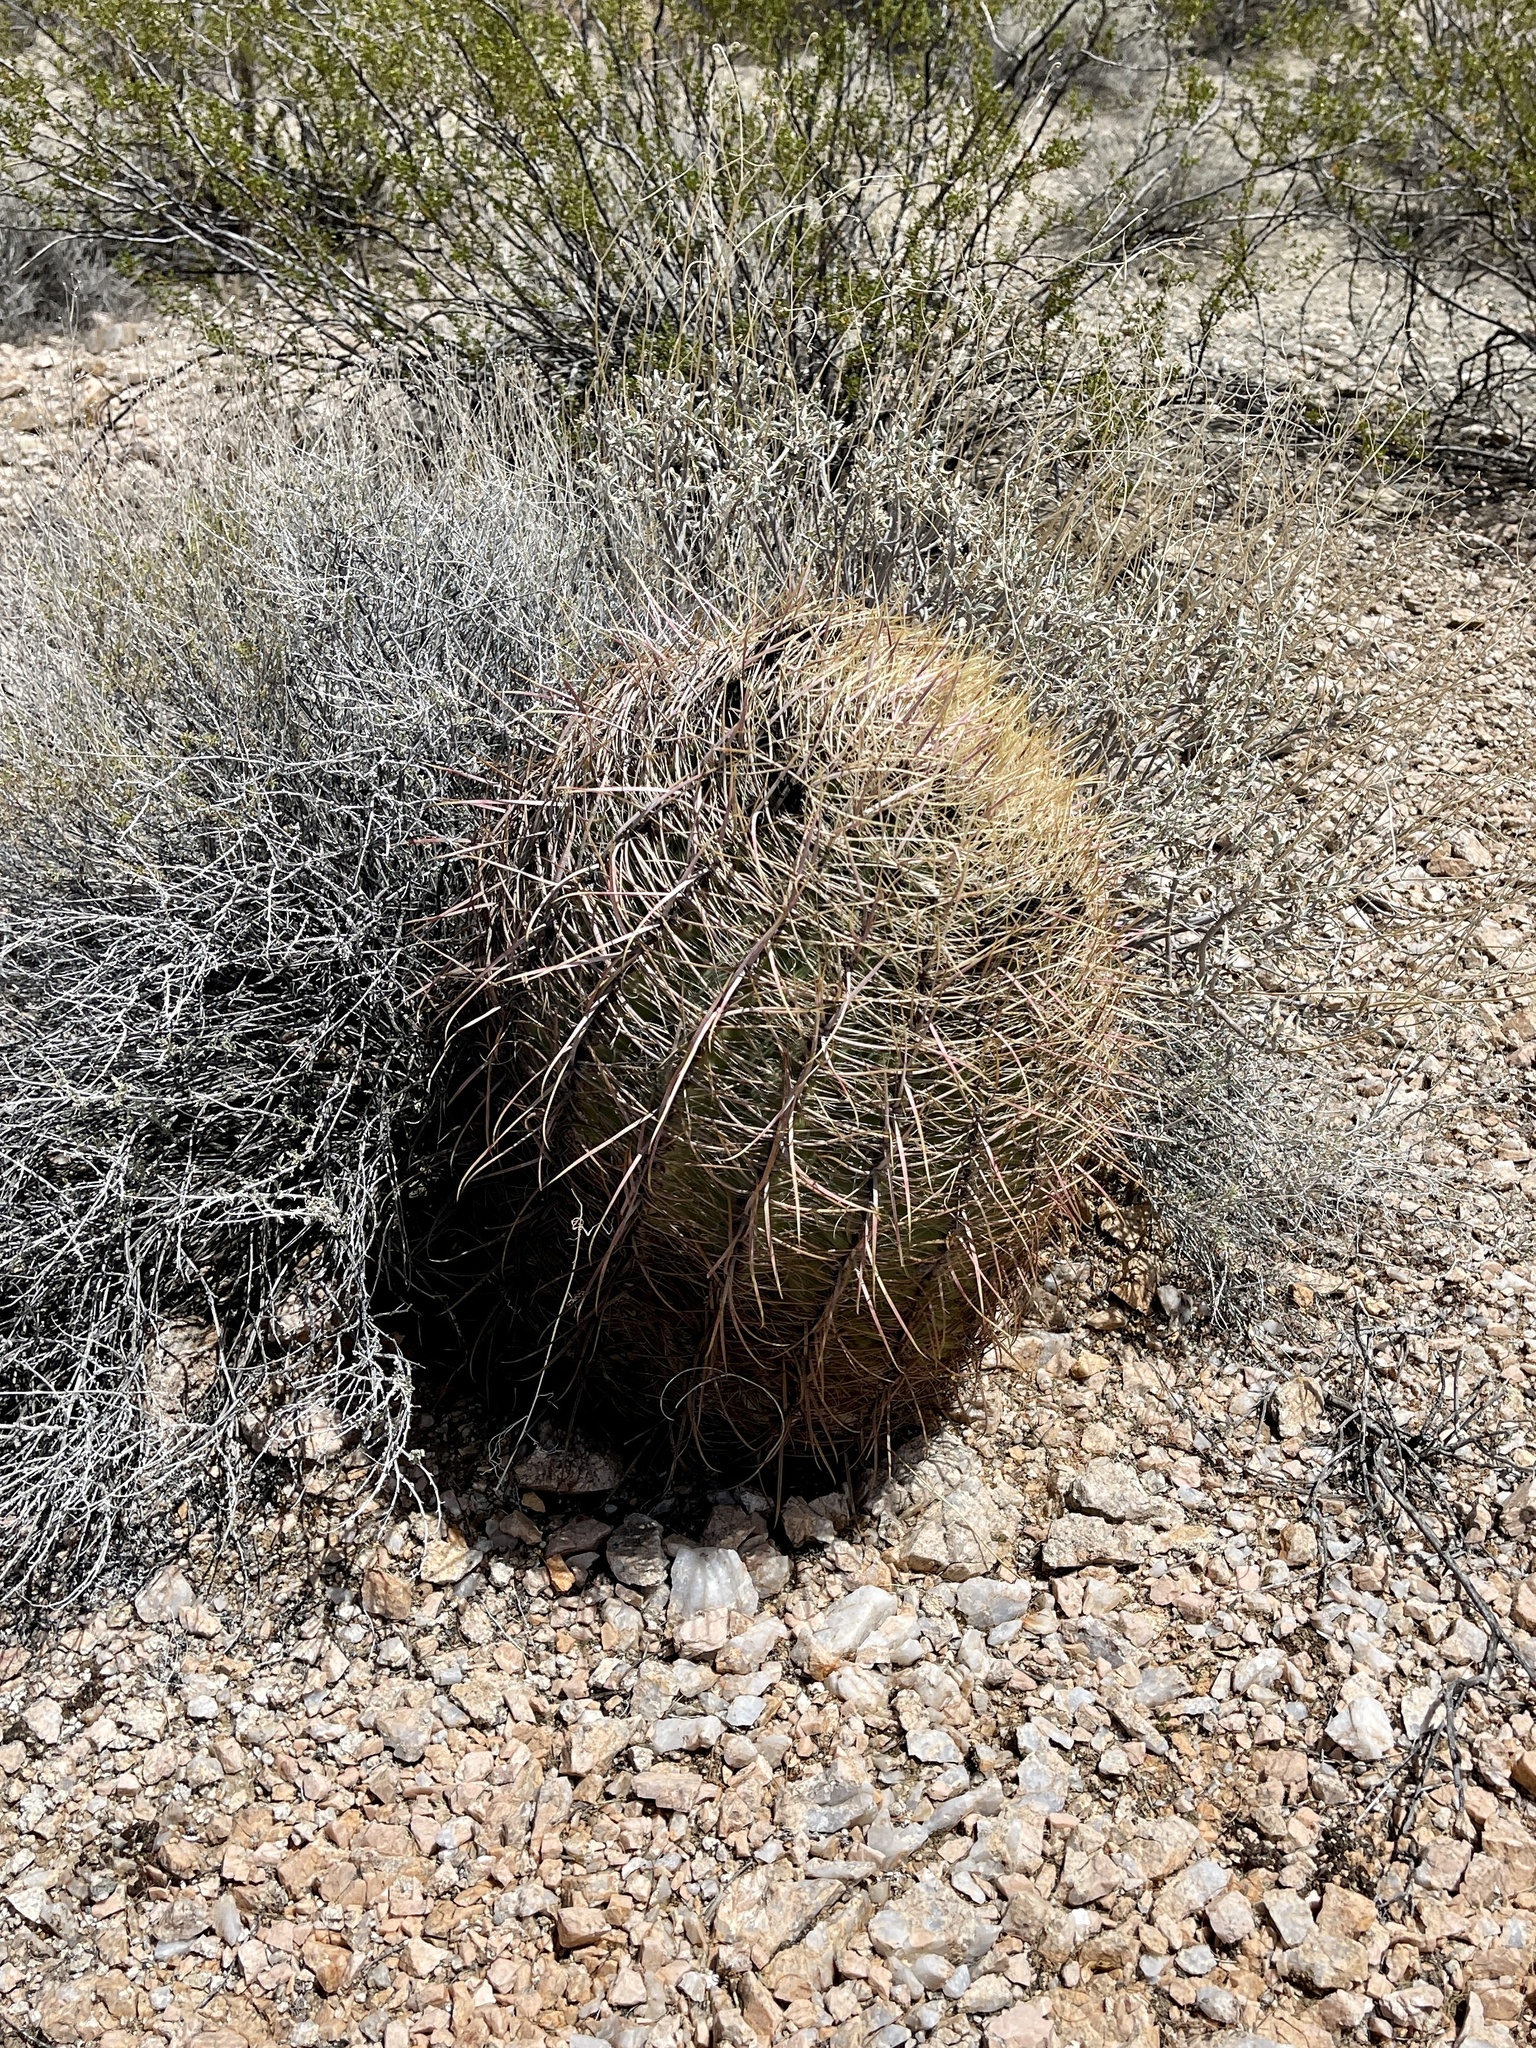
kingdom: Plantae
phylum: Tracheophyta
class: Magnoliopsida
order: Caryophyllales
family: Cactaceae
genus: Ferocactus
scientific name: Ferocactus cylindraceus
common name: California barrel cactus
